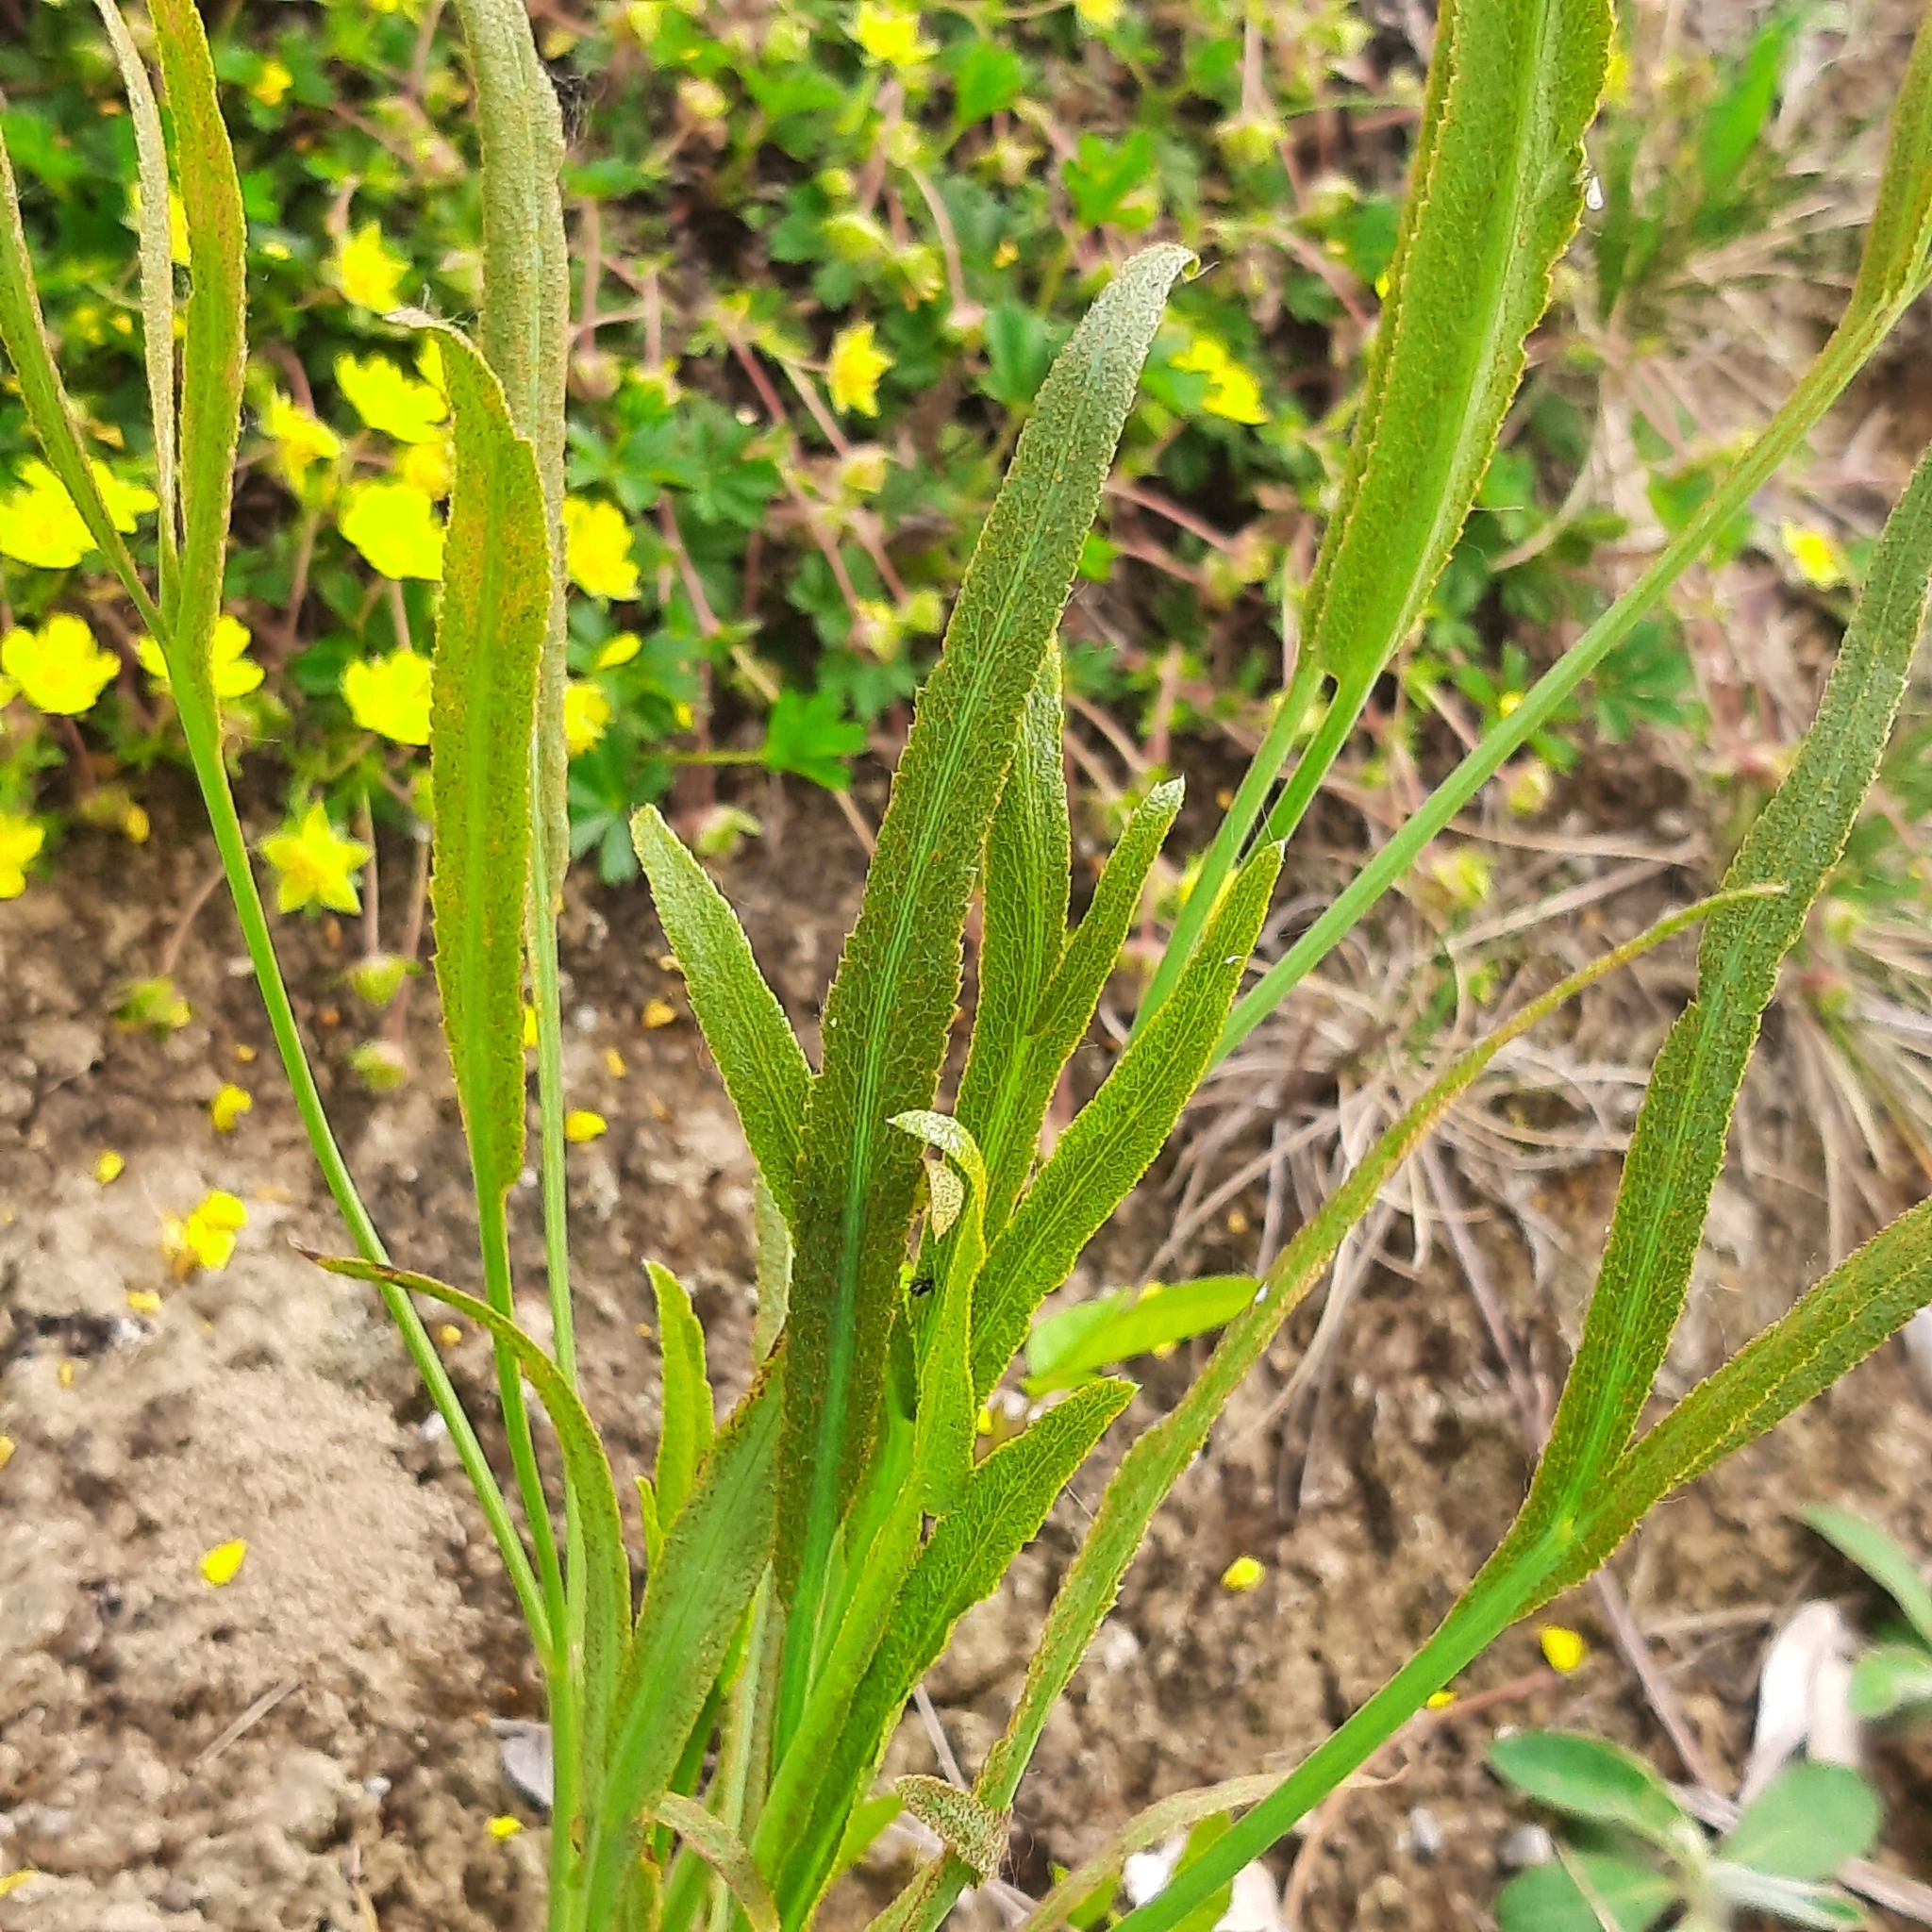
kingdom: Plantae
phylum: Tracheophyta
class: Magnoliopsida
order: Apiales
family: Apiaceae
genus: Falcaria
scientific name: Falcaria vulgaris
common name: Longleaf
